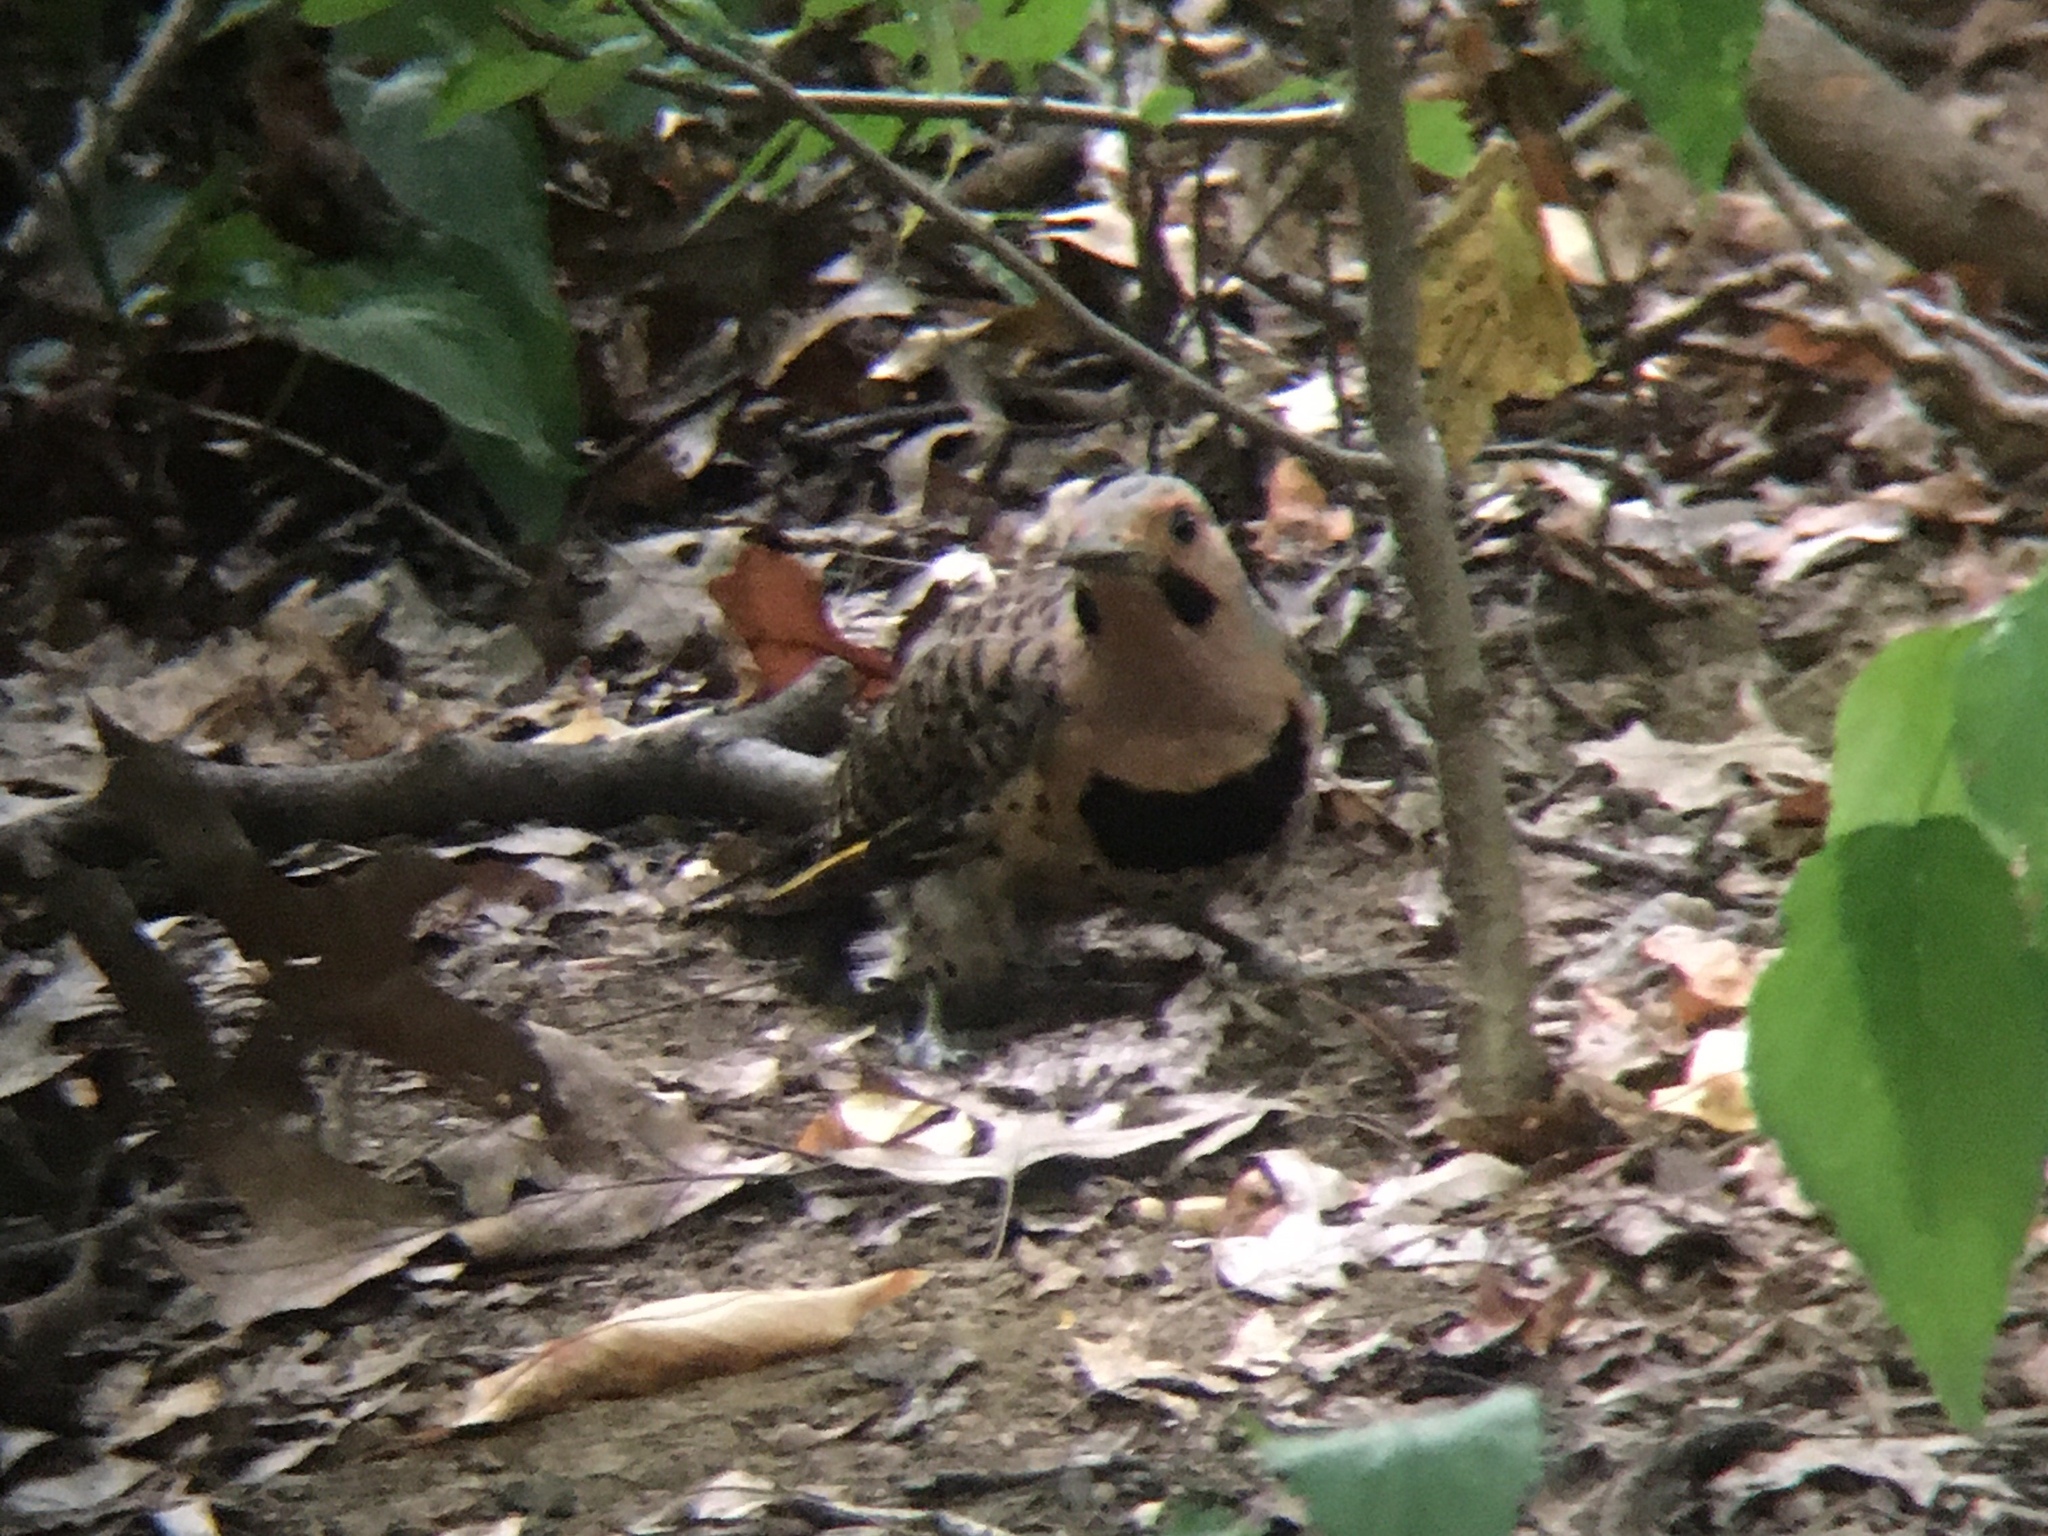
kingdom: Animalia
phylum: Chordata
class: Aves
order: Piciformes
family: Picidae
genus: Colaptes
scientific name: Colaptes auratus
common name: Northern flicker
